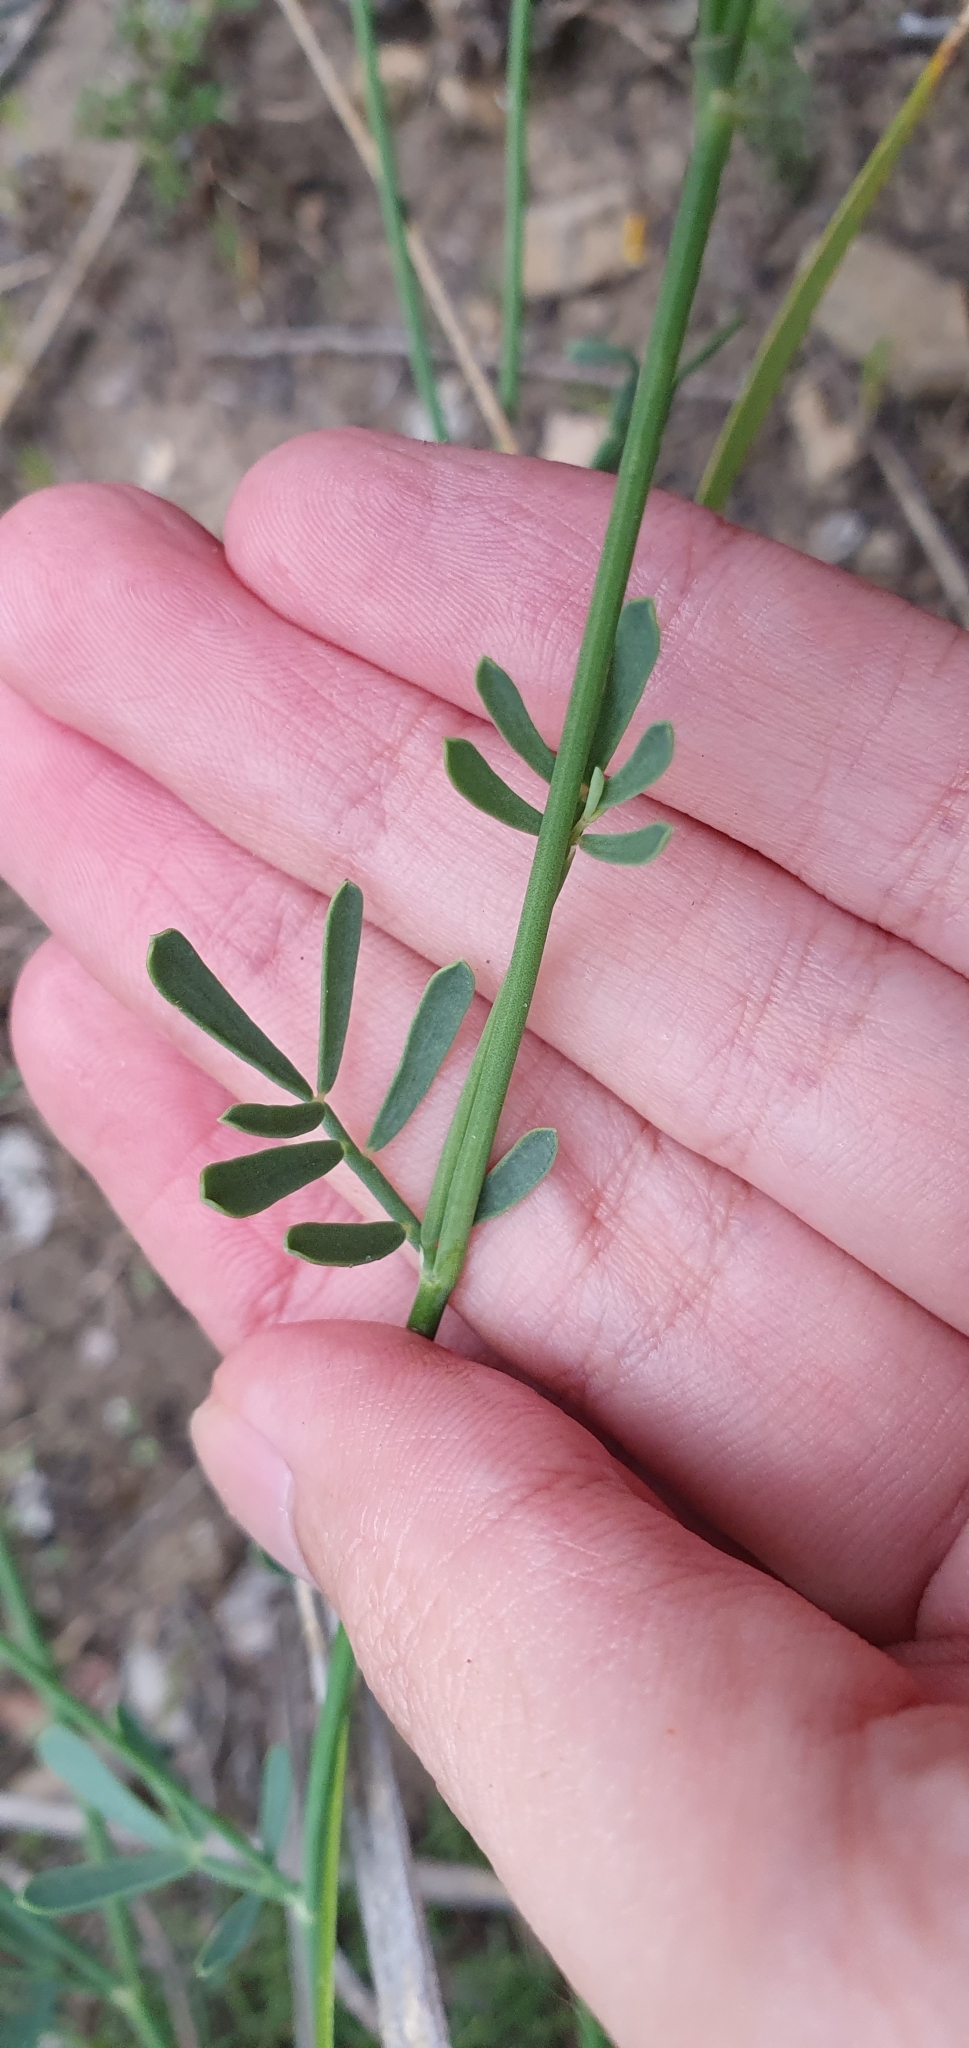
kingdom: Plantae
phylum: Tracheophyta
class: Magnoliopsida
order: Fabales
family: Fabaceae
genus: Coronilla
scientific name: Coronilla juncea
